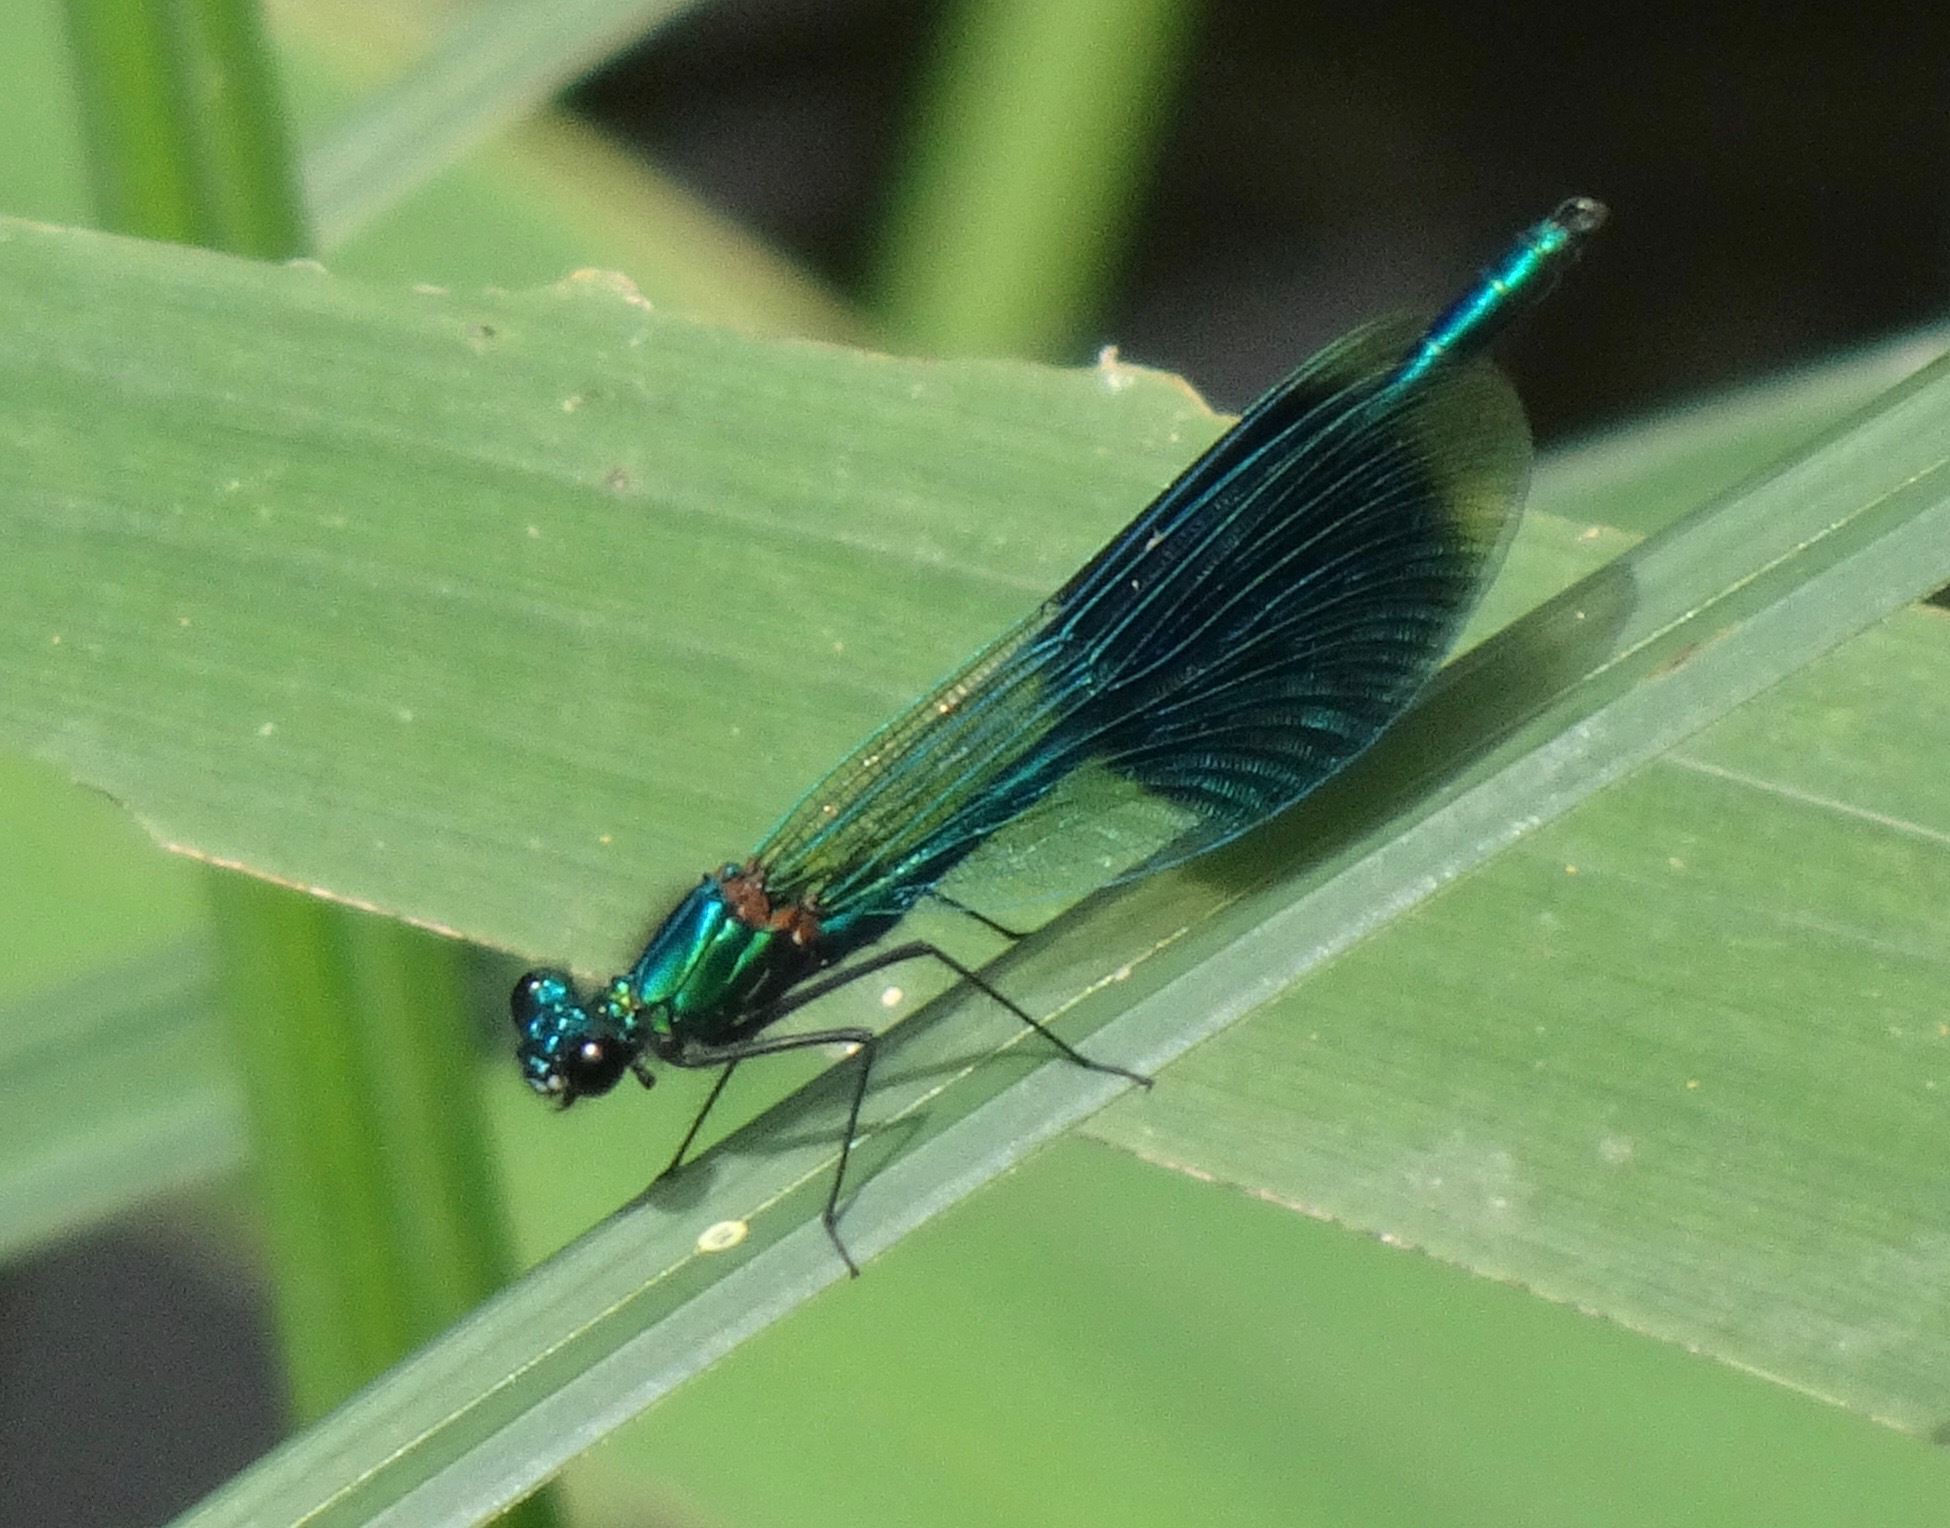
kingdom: Animalia
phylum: Arthropoda
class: Insecta
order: Odonata
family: Calopterygidae
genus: Calopteryx
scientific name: Calopteryx splendens
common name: Banded demoiselle
